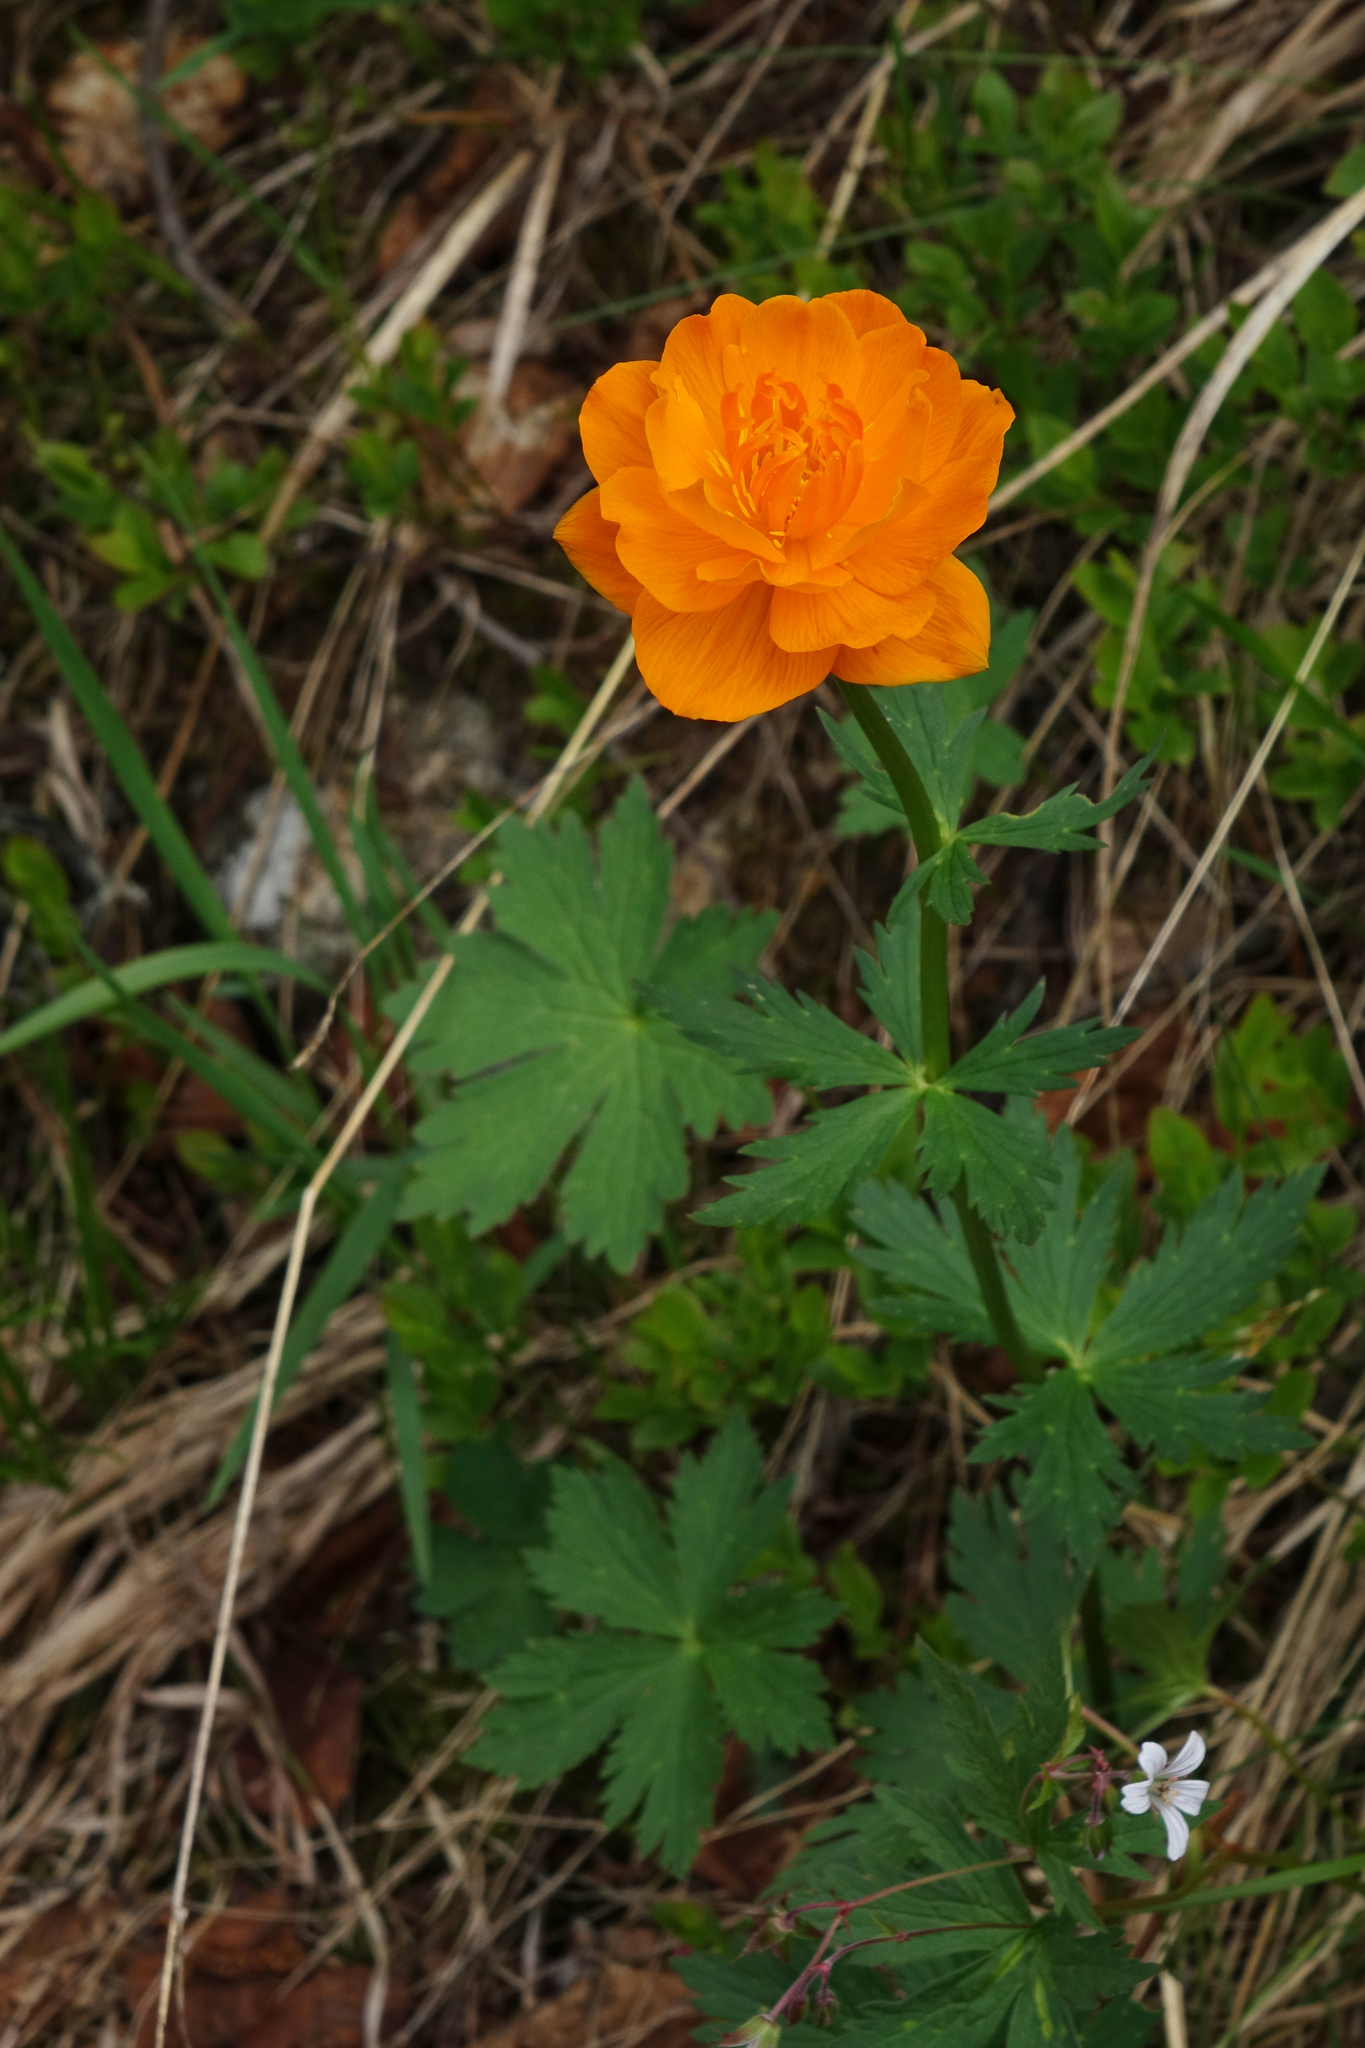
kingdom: Plantae
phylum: Tracheophyta
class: Magnoliopsida
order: Ranunculales
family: Ranunculaceae
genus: Trollius
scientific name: Trollius asiaticus
